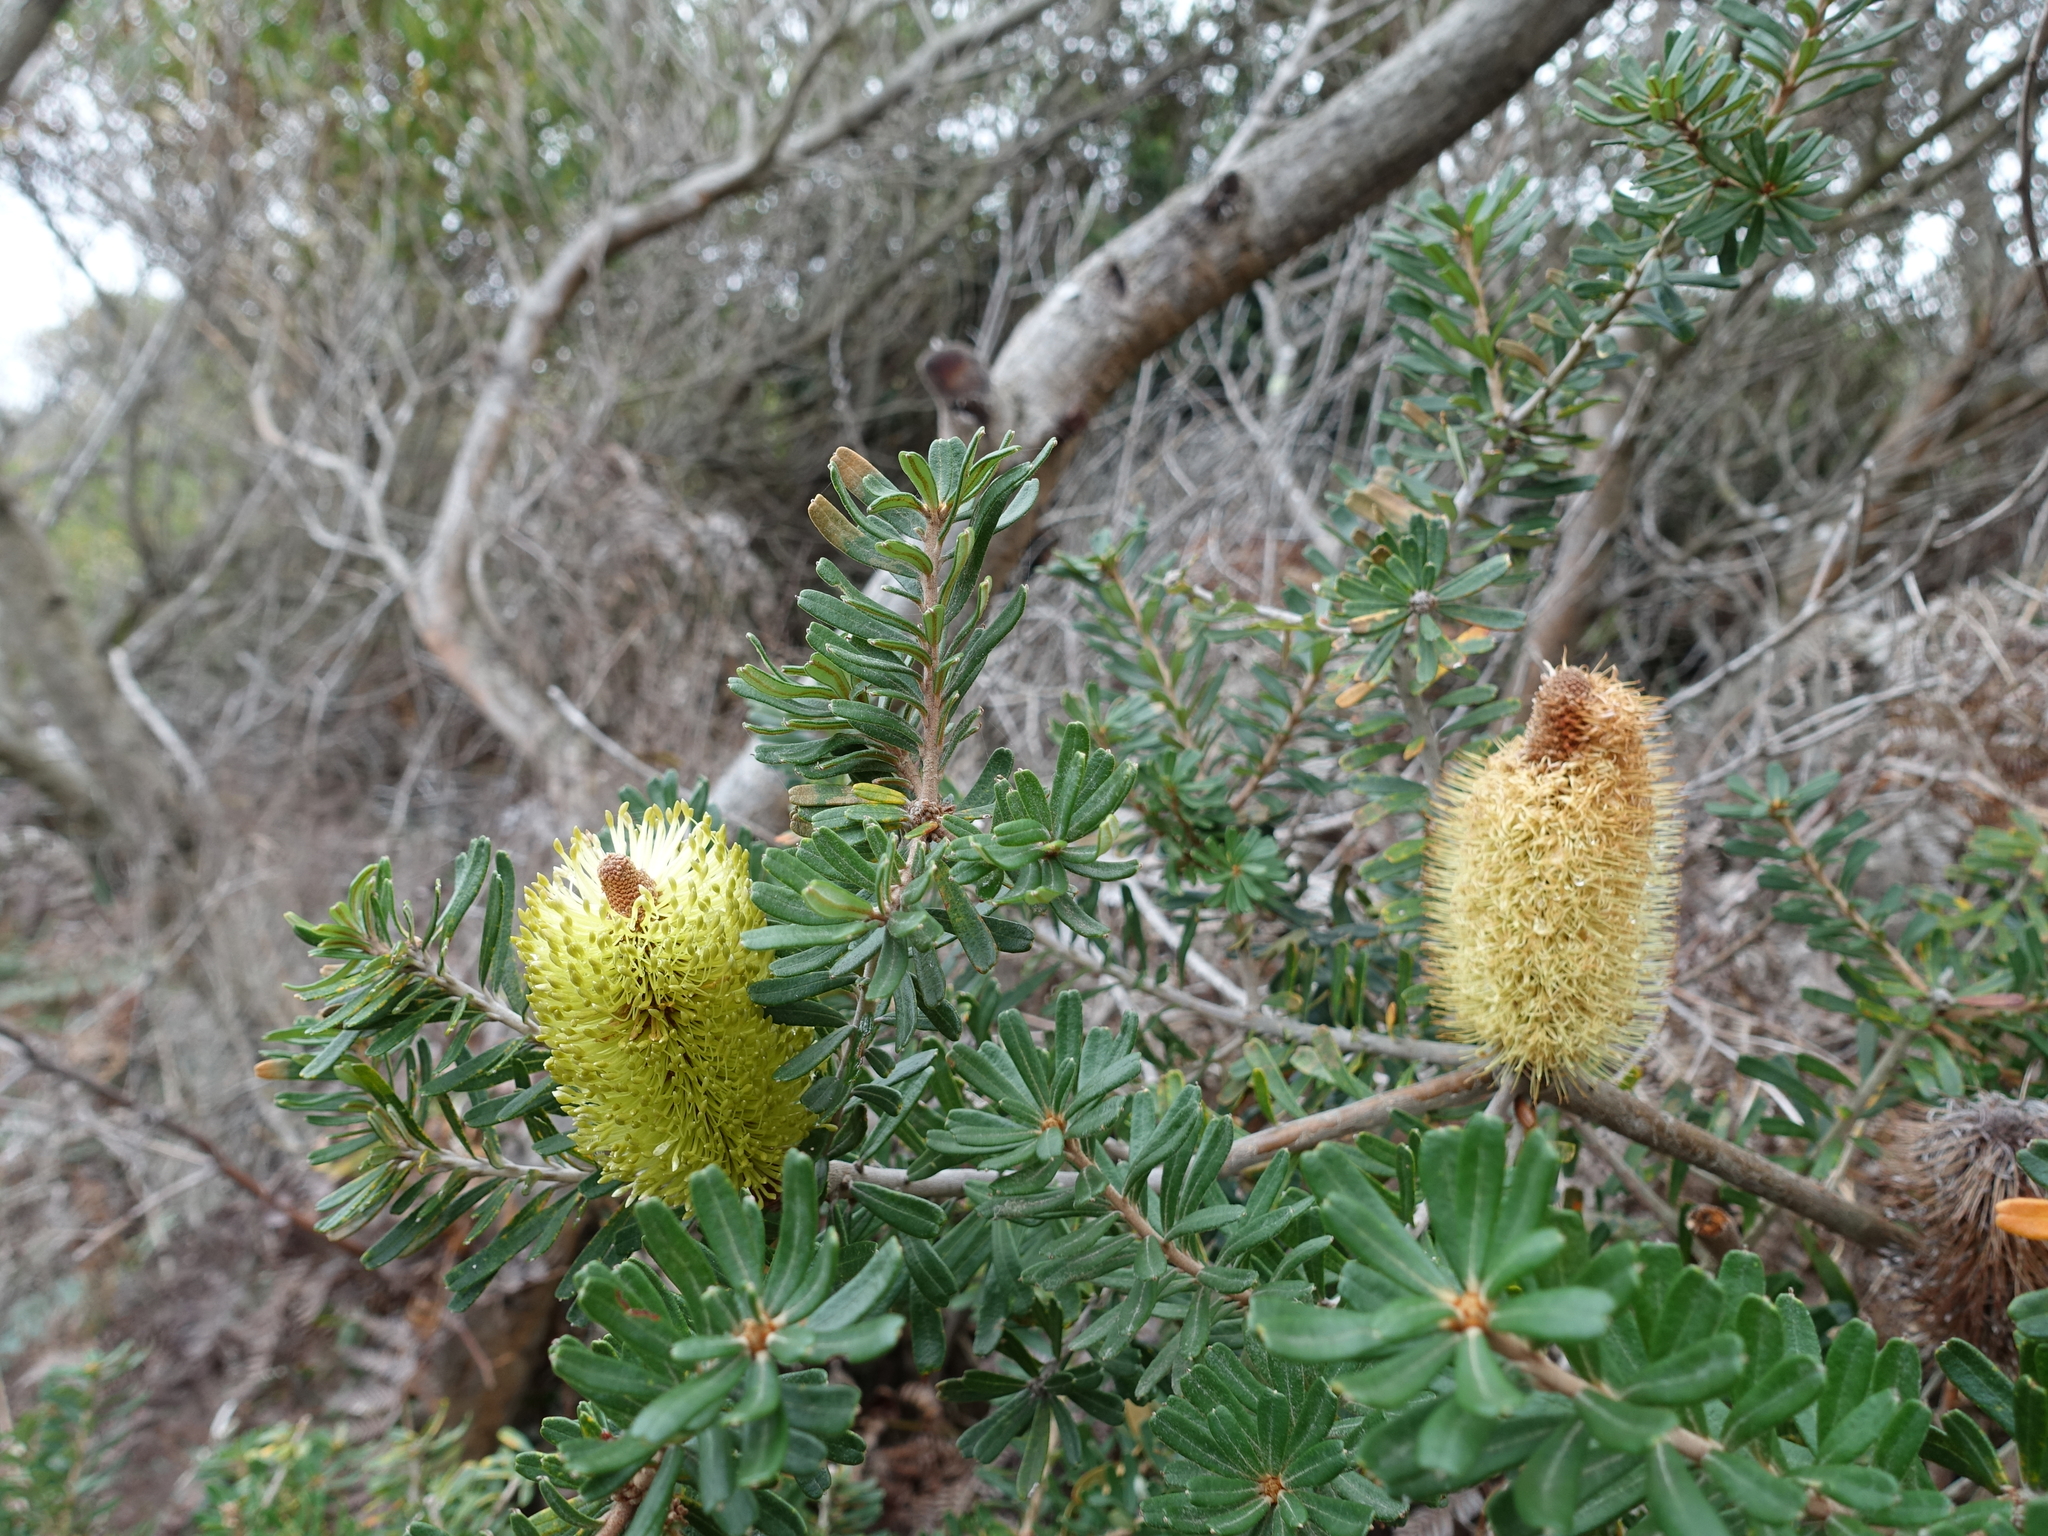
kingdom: Plantae
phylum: Tracheophyta
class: Magnoliopsida
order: Proteales
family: Proteaceae
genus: Banksia
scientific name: Banksia marginata
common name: Silver banksia
